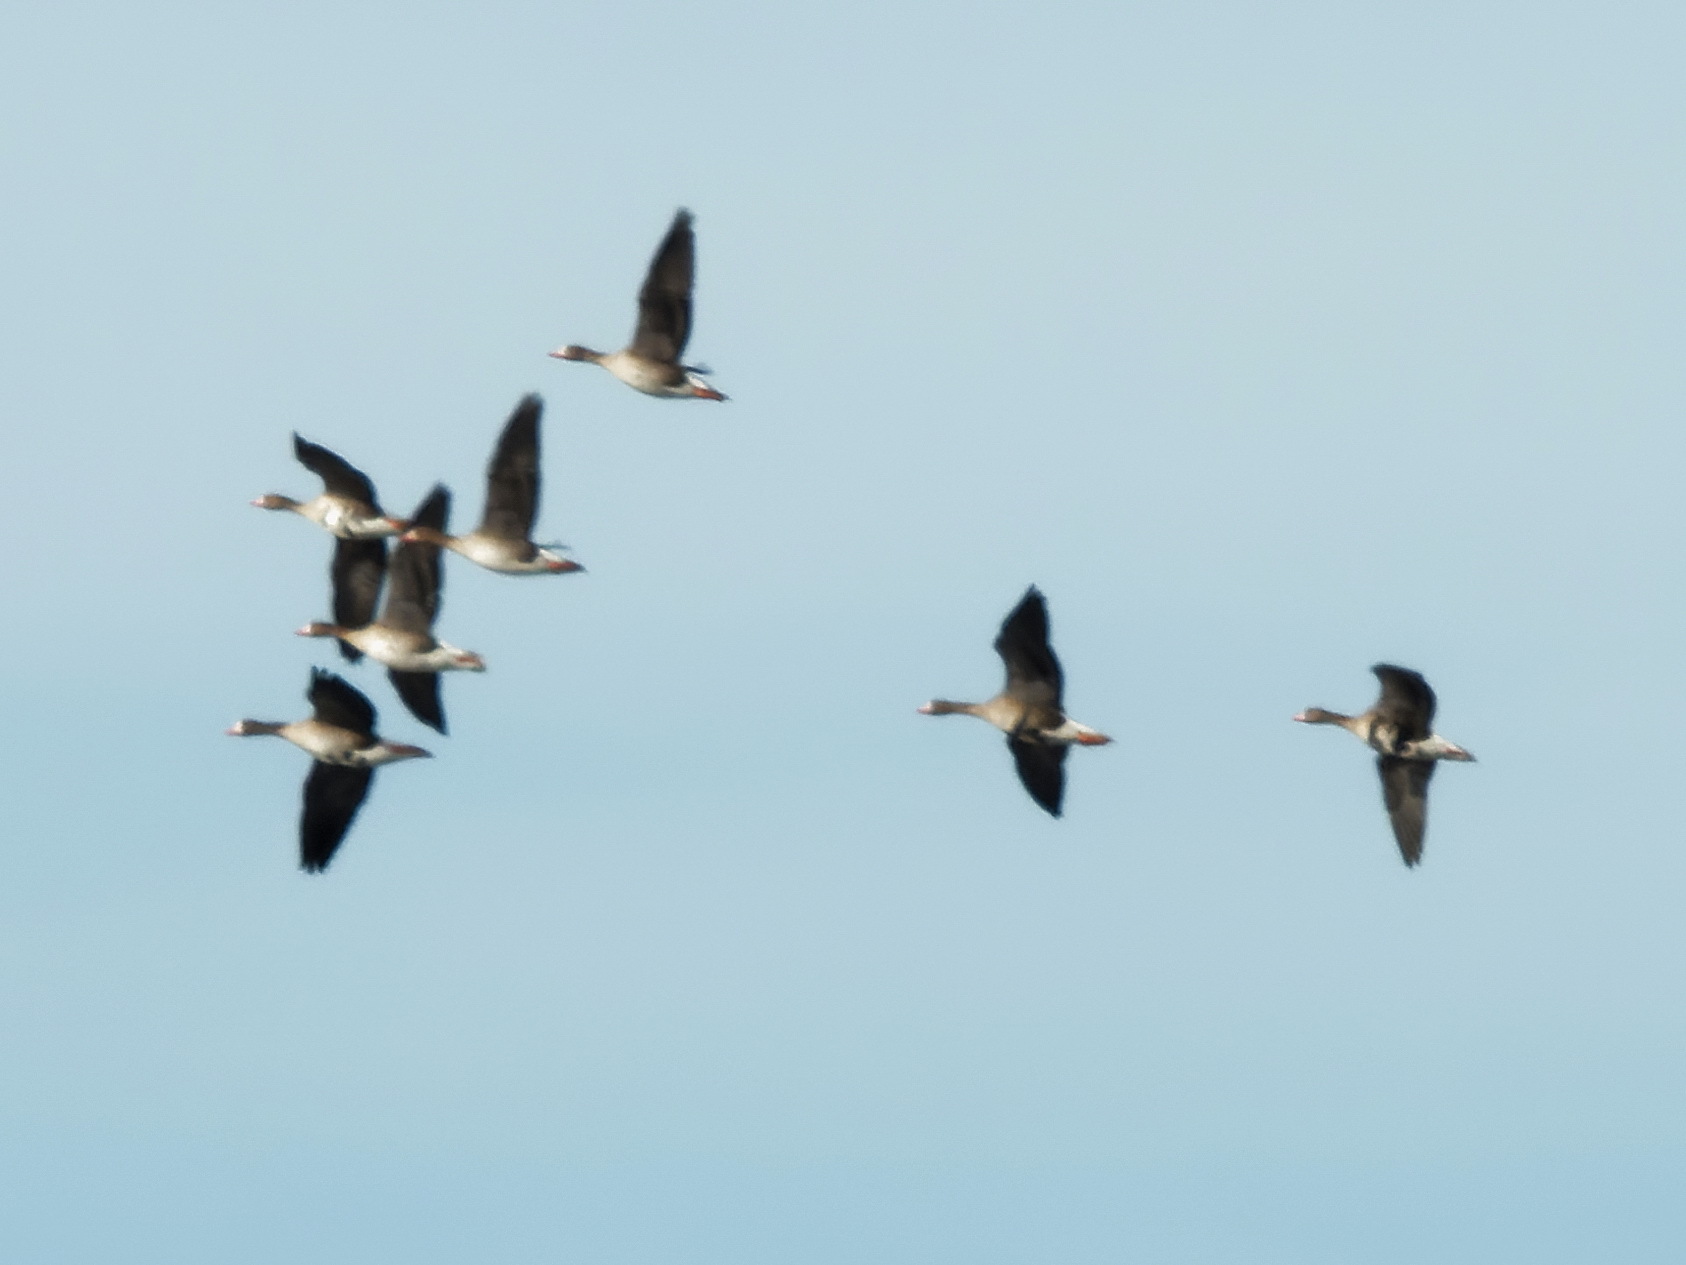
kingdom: Animalia
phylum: Chordata
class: Aves
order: Anseriformes
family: Anatidae
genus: Anser
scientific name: Anser albifrons
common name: Greater white-fronted goose
